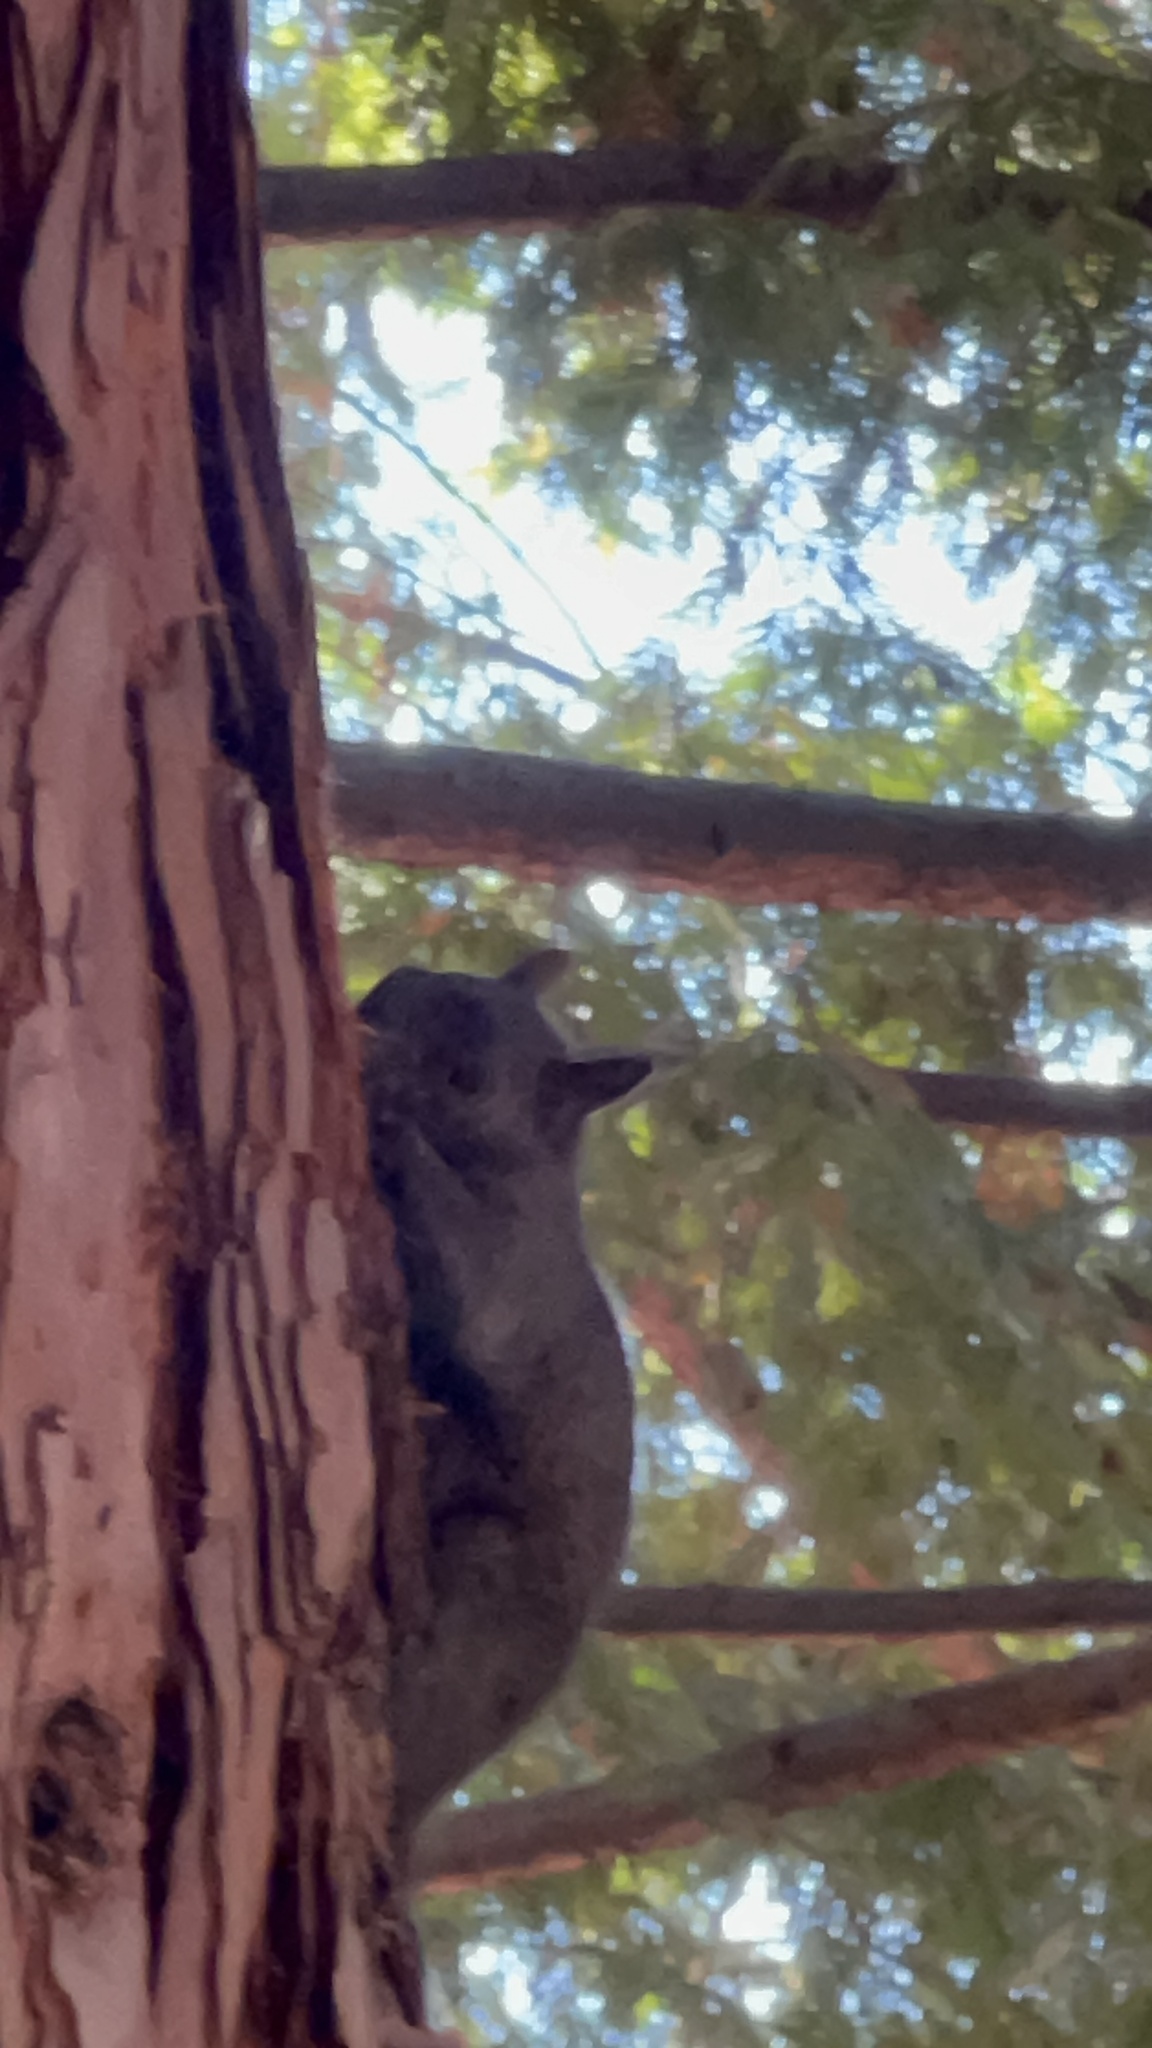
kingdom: Animalia
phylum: Chordata
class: Mammalia
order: Rodentia
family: Sciuridae
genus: Sciurus
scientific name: Sciurus carolinensis
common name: Eastern gray squirrel
